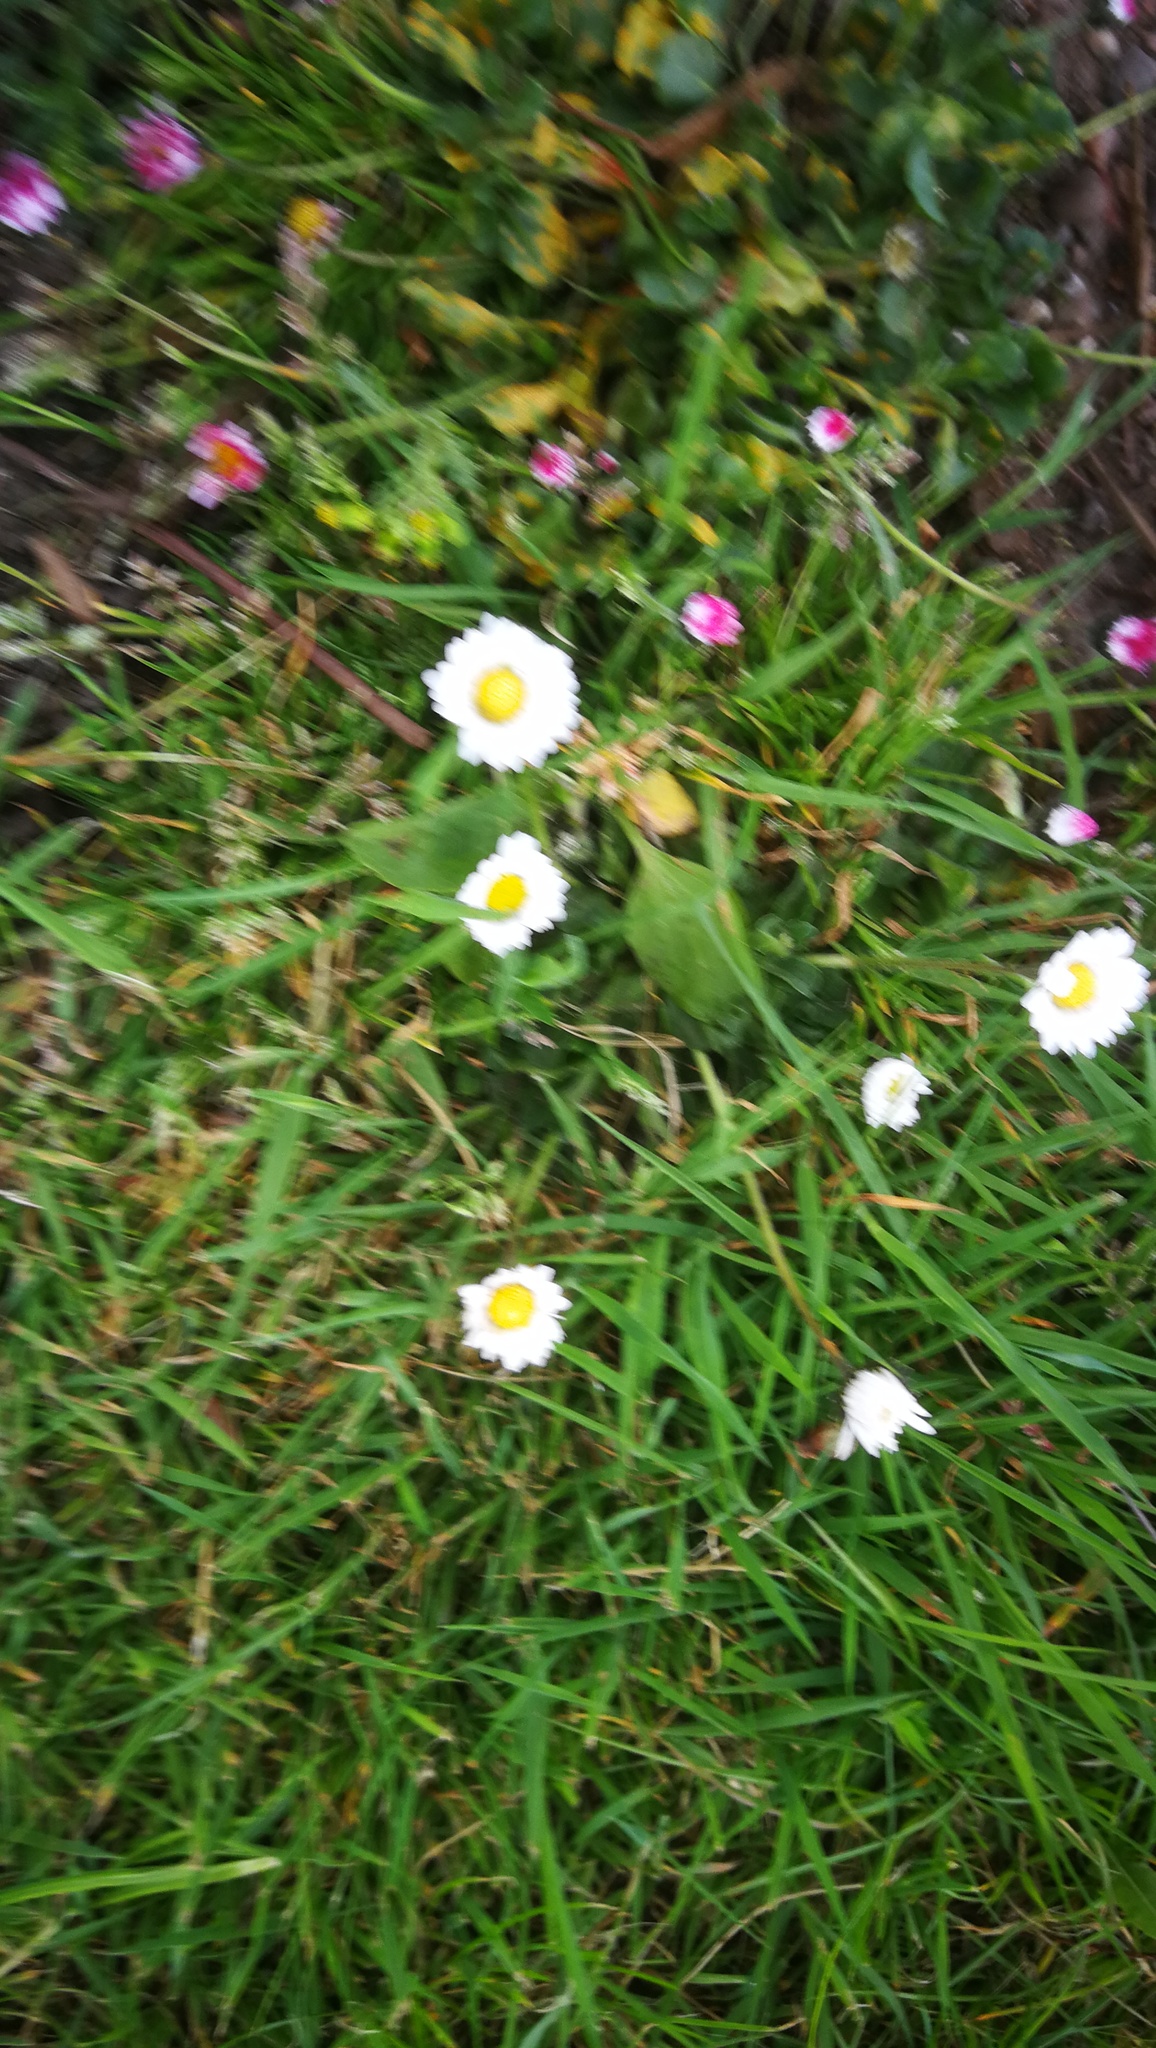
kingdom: Plantae
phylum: Tracheophyta
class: Magnoliopsida
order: Asterales
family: Asteraceae
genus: Bellis
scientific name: Bellis perennis
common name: Lawndaisy
